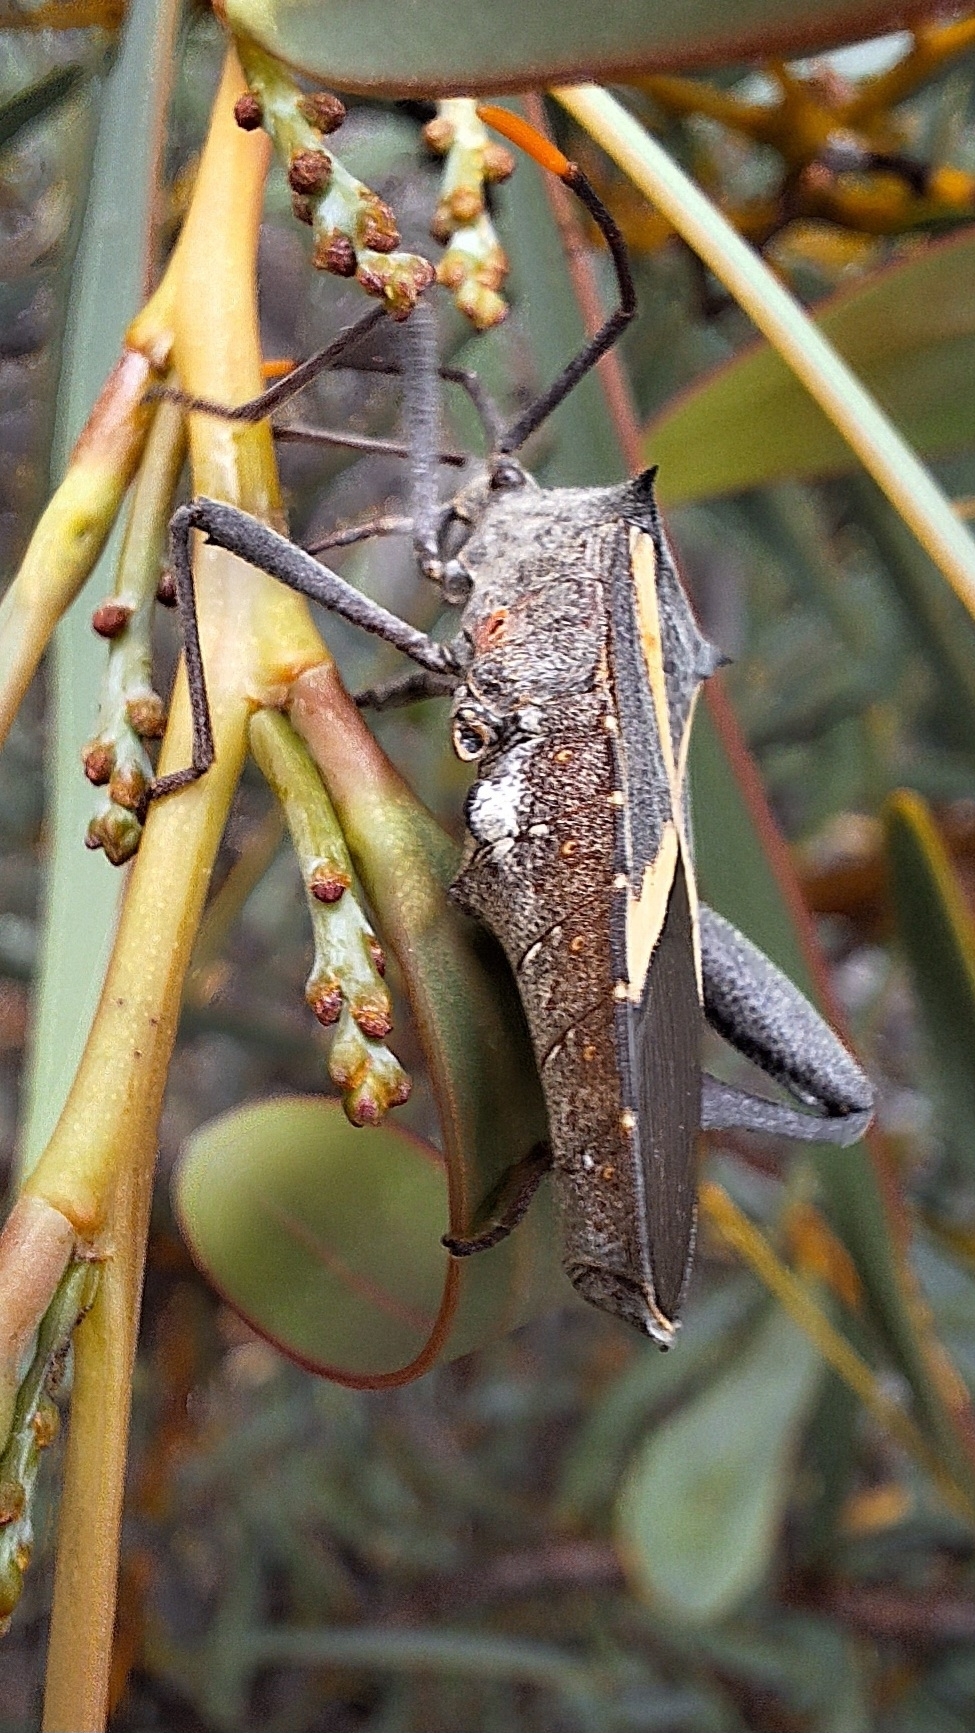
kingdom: Animalia
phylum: Arthropoda
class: Insecta
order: Hemiptera
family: Coreidae
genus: Mictis
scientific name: Mictis profana
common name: Crusader bug
